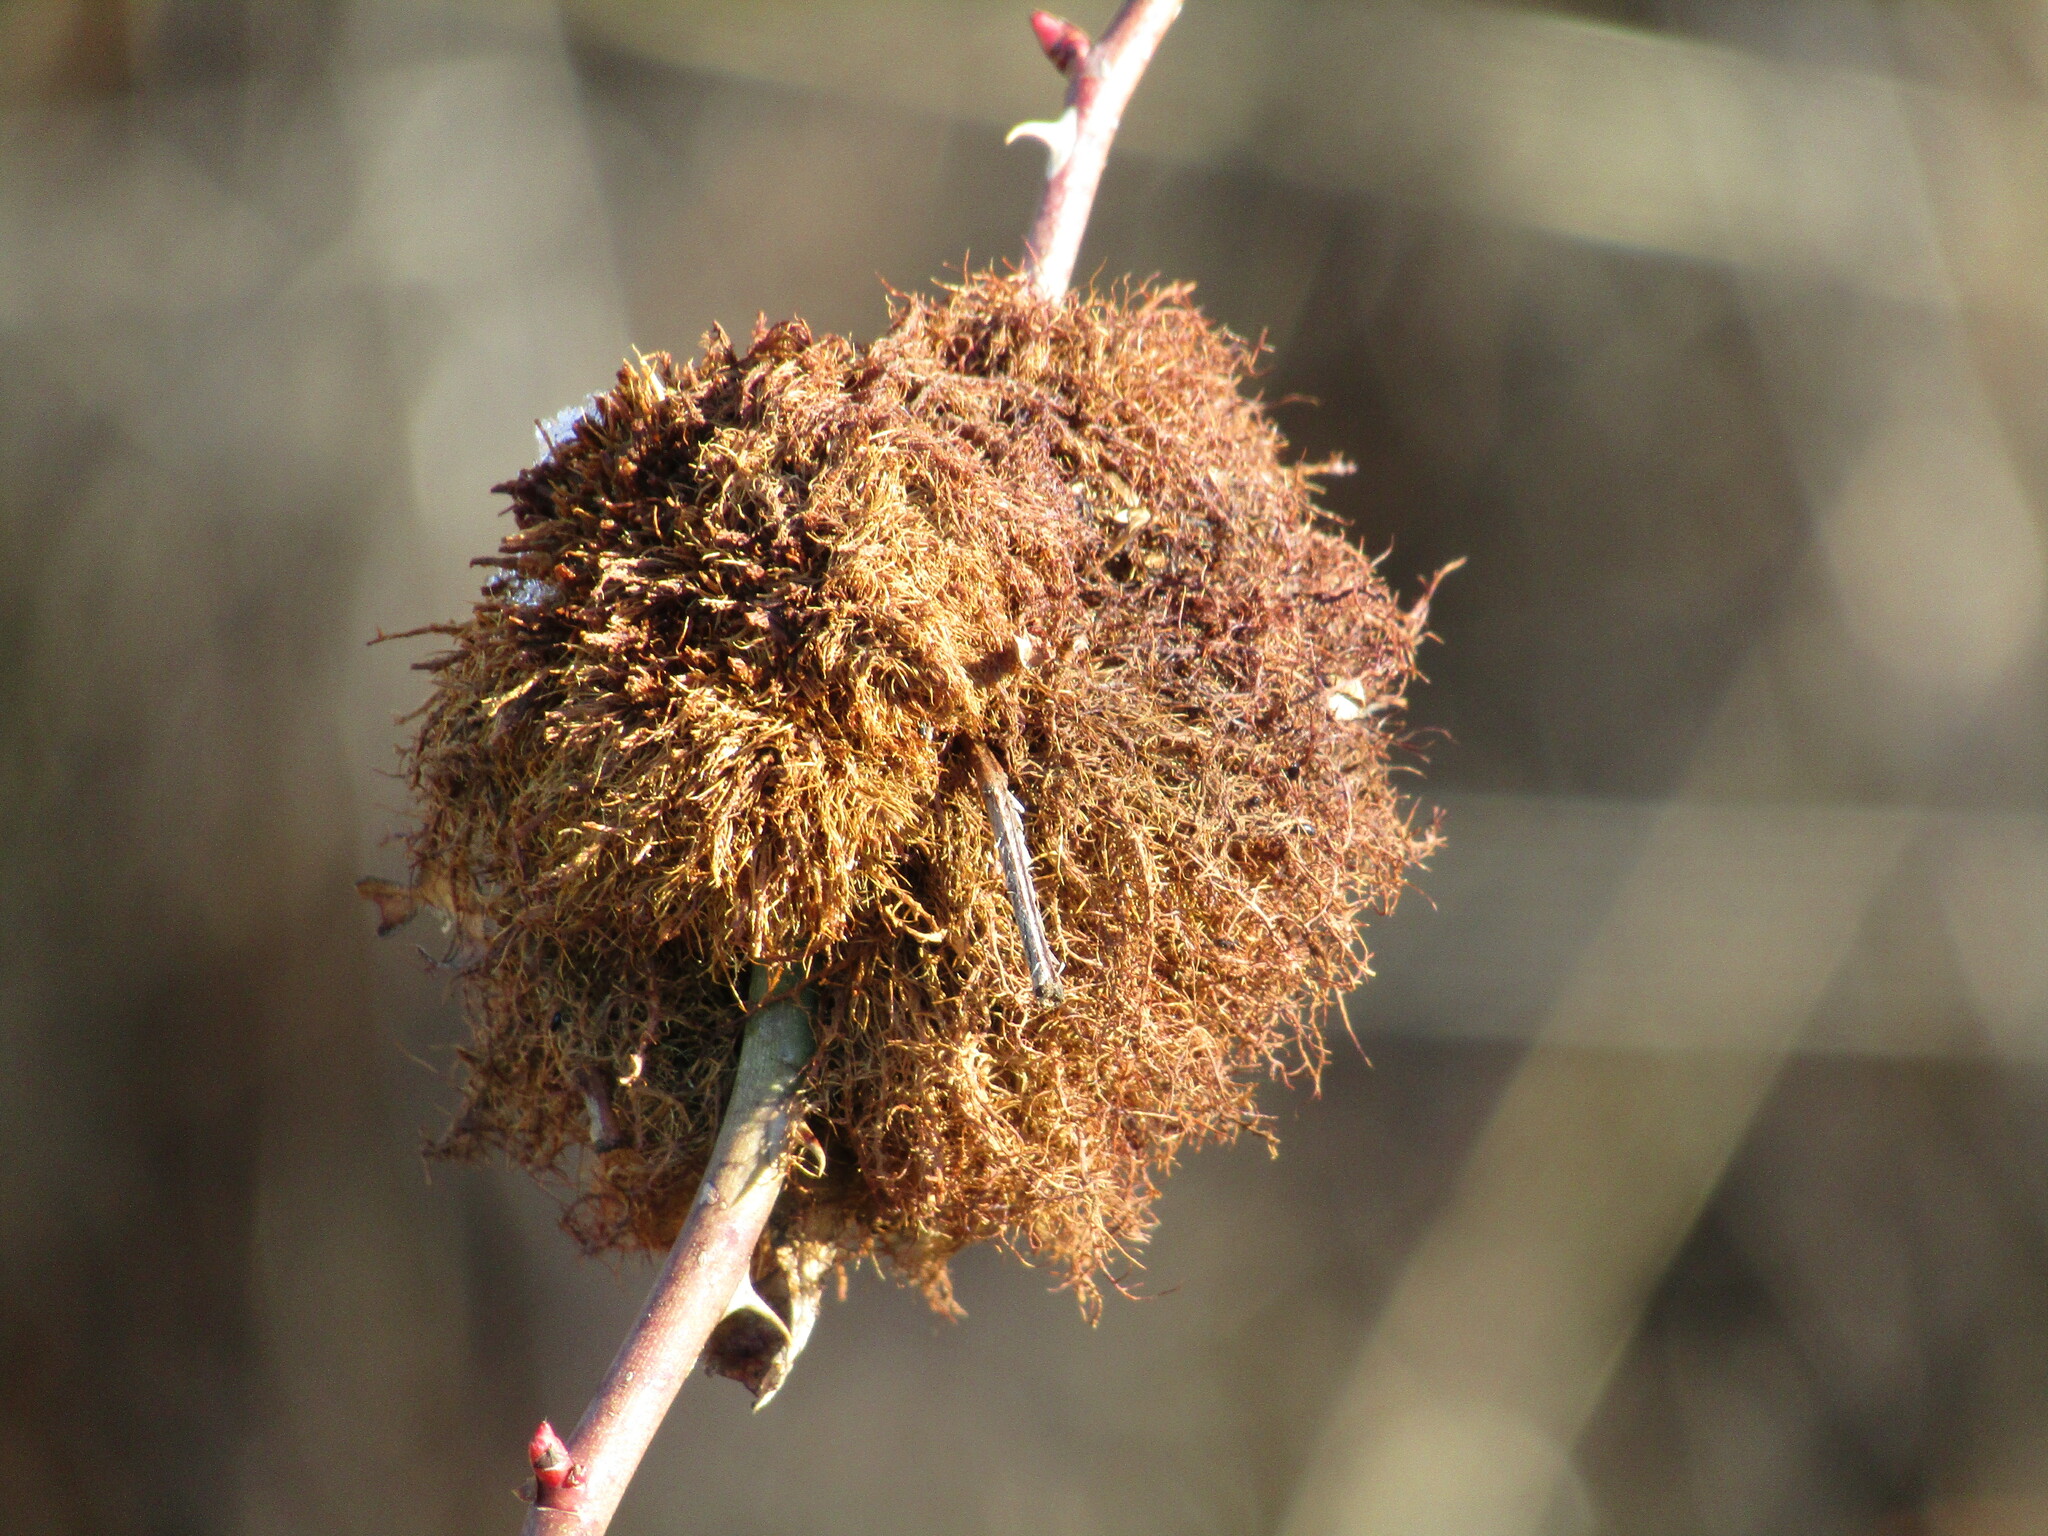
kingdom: Animalia
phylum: Arthropoda
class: Insecta
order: Hymenoptera
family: Cynipidae
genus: Diplolepis
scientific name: Diplolepis rosae
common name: Bedeguar gall
